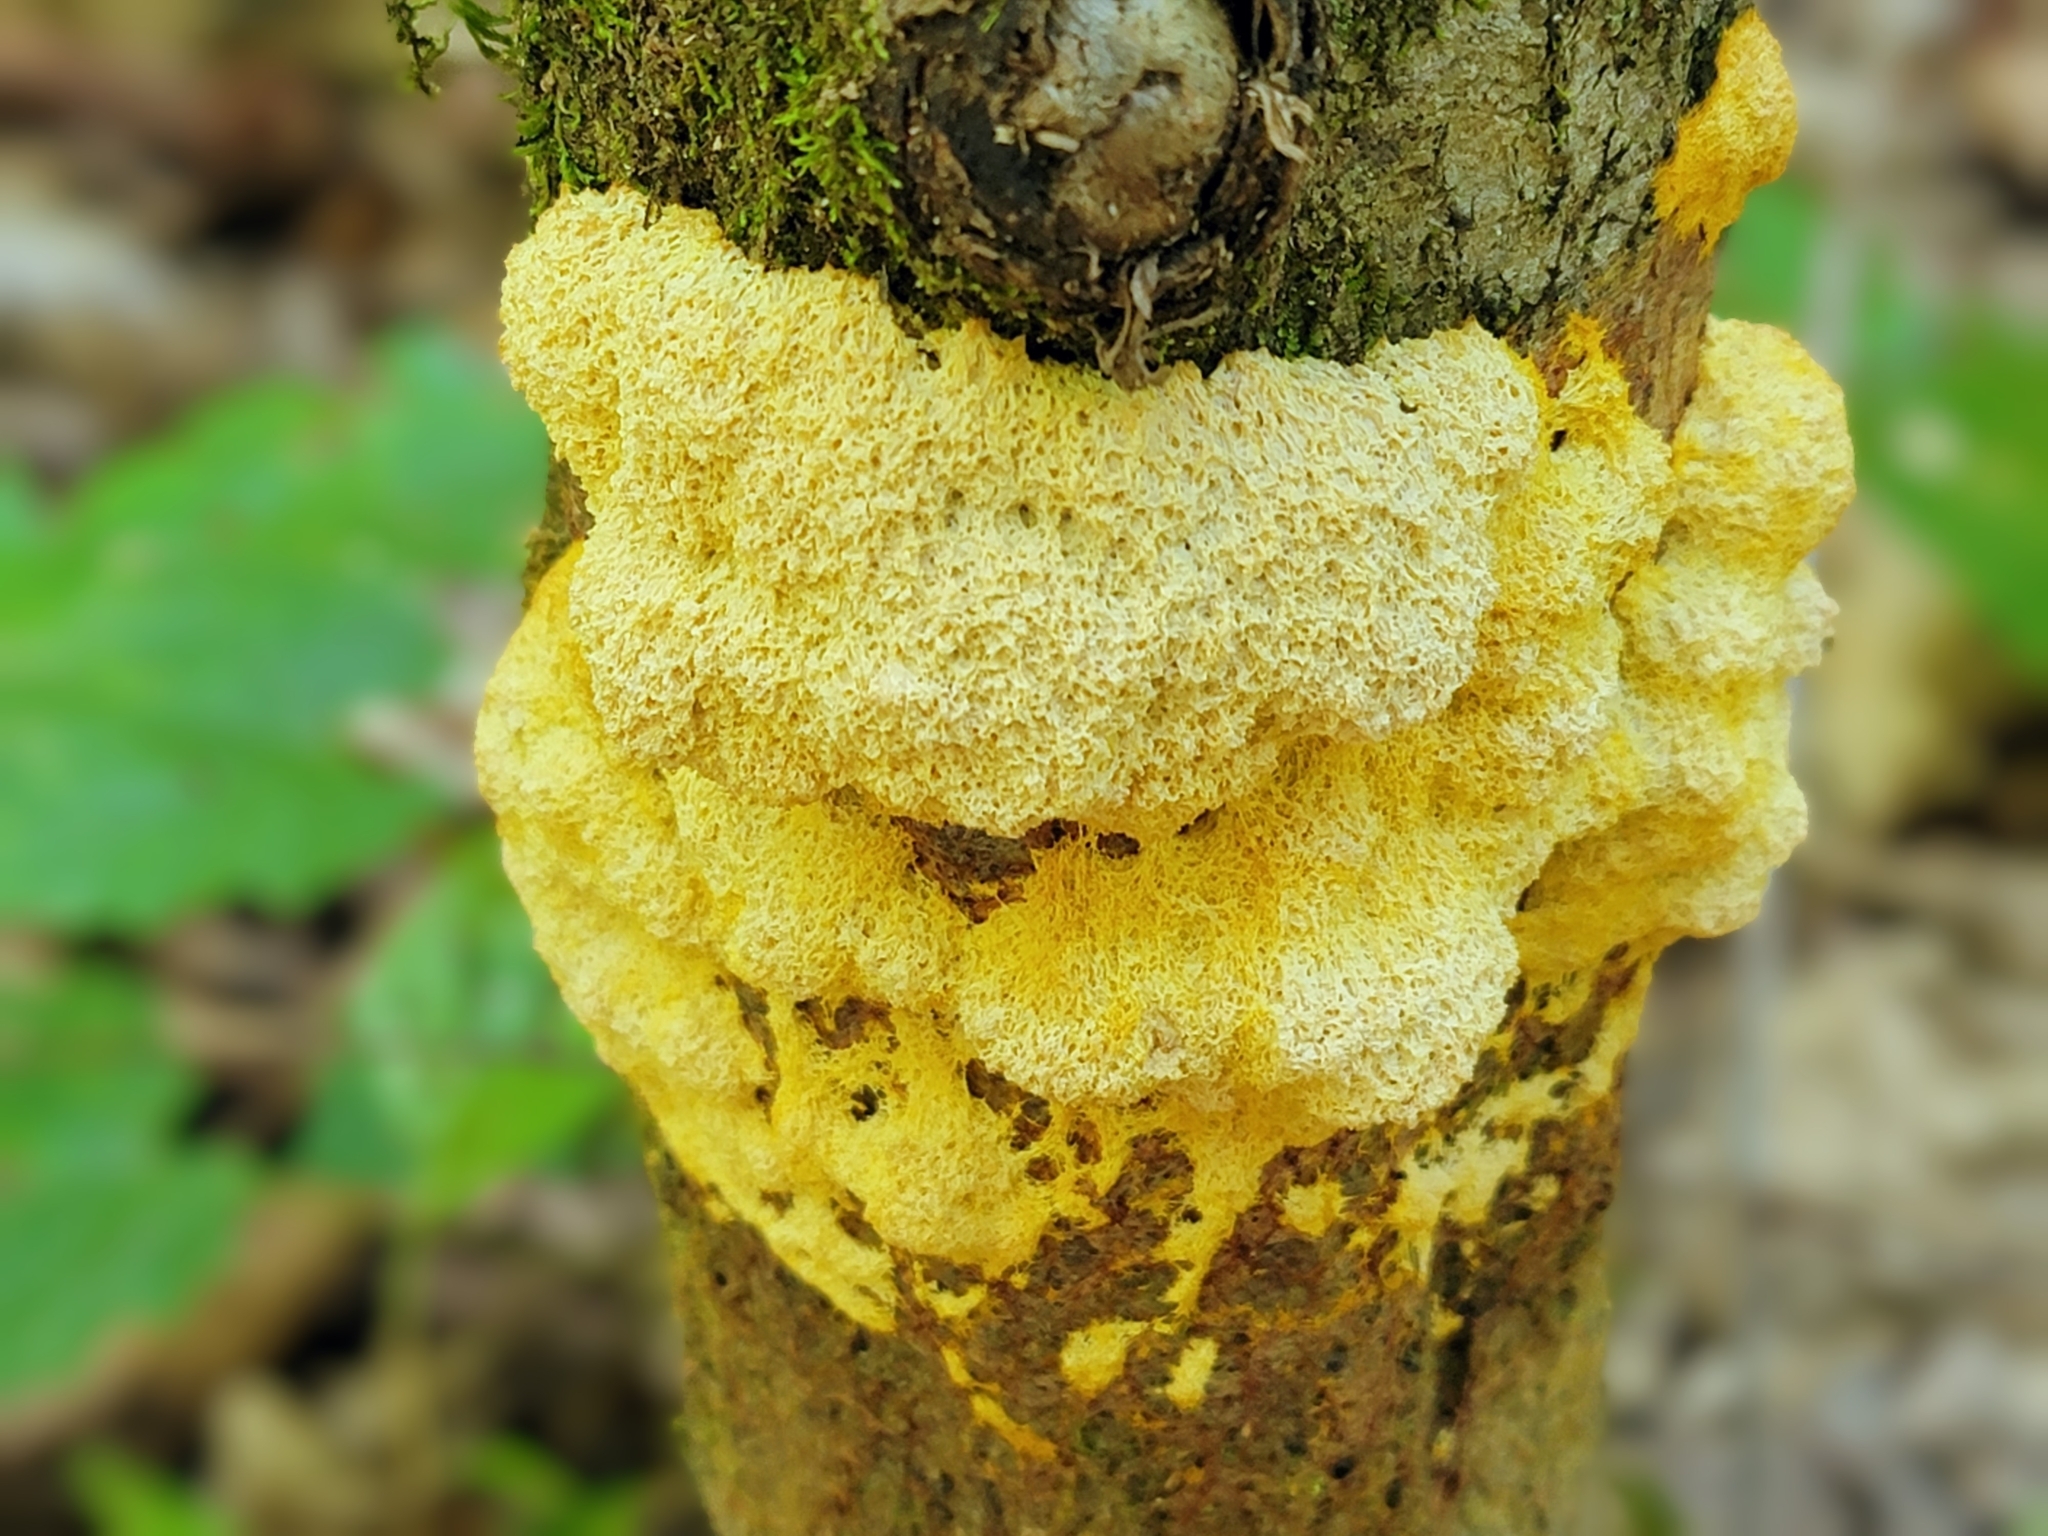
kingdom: Protozoa
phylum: Mycetozoa
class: Myxomycetes
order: Physarales
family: Physaraceae
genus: Fuligo
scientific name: Fuligo septica
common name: Dog vomit slime mold
